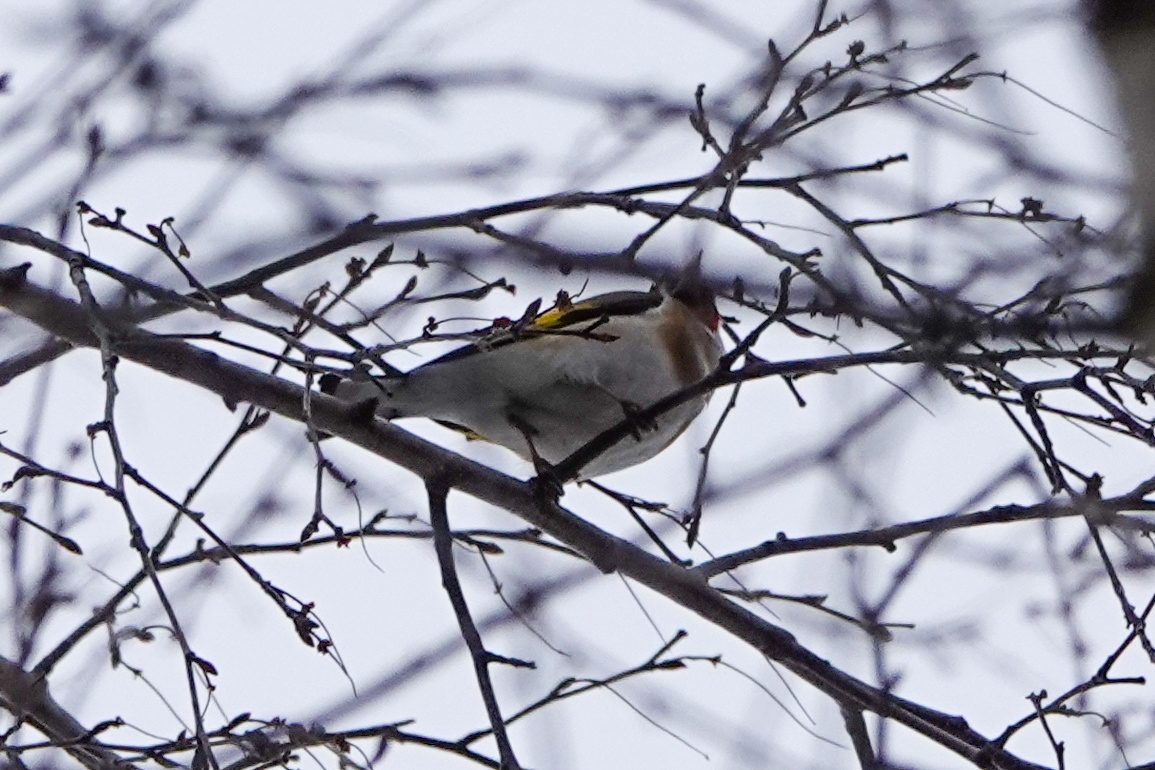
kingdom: Animalia
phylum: Chordata
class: Aves
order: Passeriformes
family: Fringillidae
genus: Carduelis
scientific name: Carduelis carduelis
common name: European goldfinch
